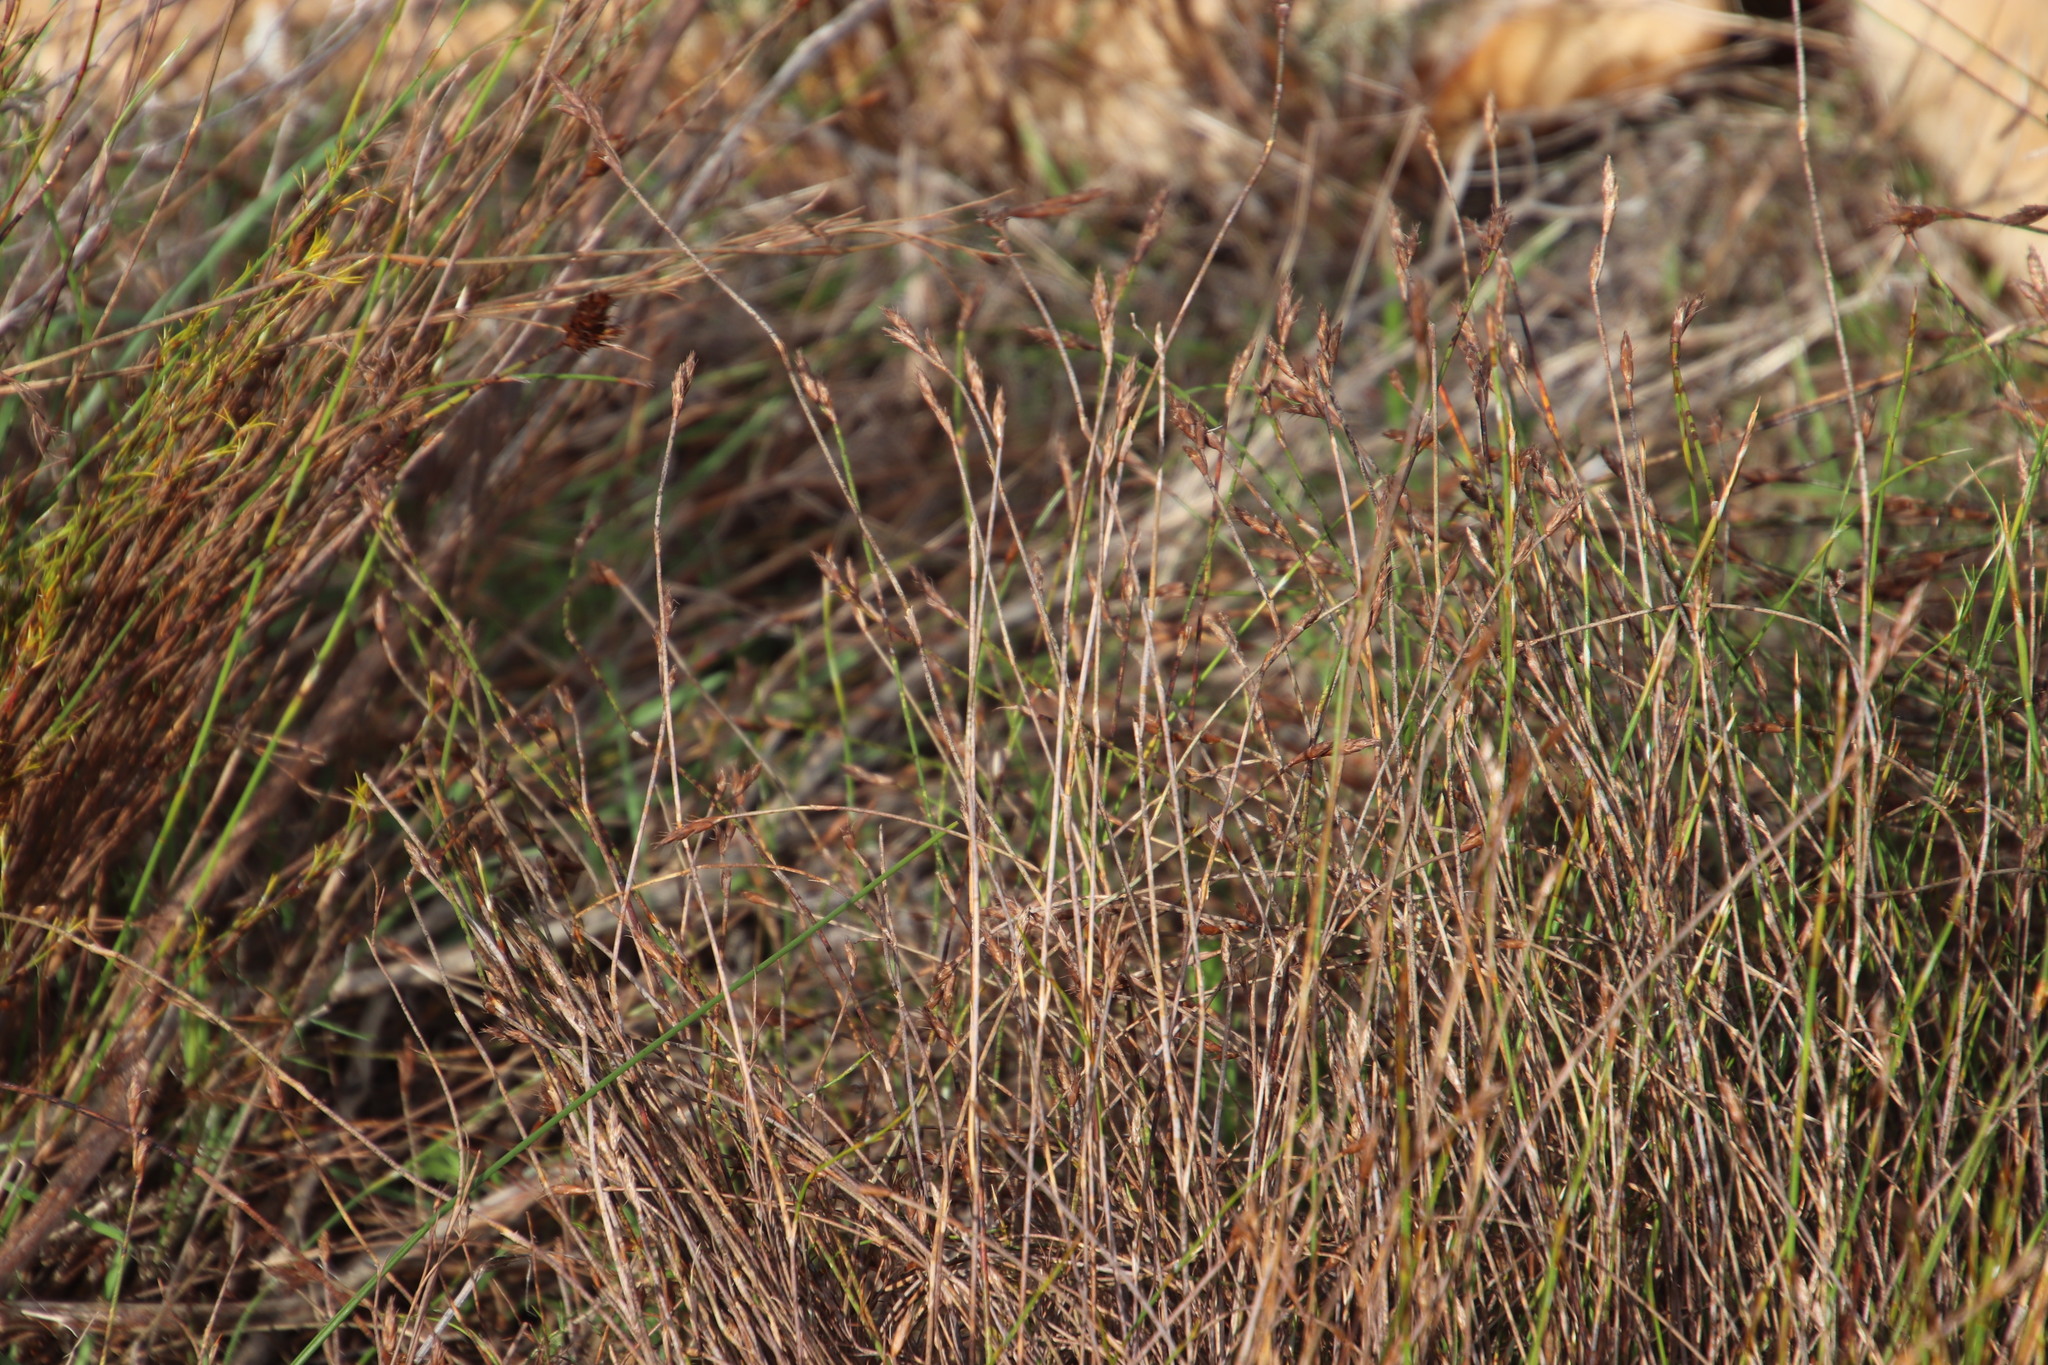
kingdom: Plantae
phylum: Tracheophyta
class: Liliopsida
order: Poales
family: Restionaceae
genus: Restio
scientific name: Restio capensis
